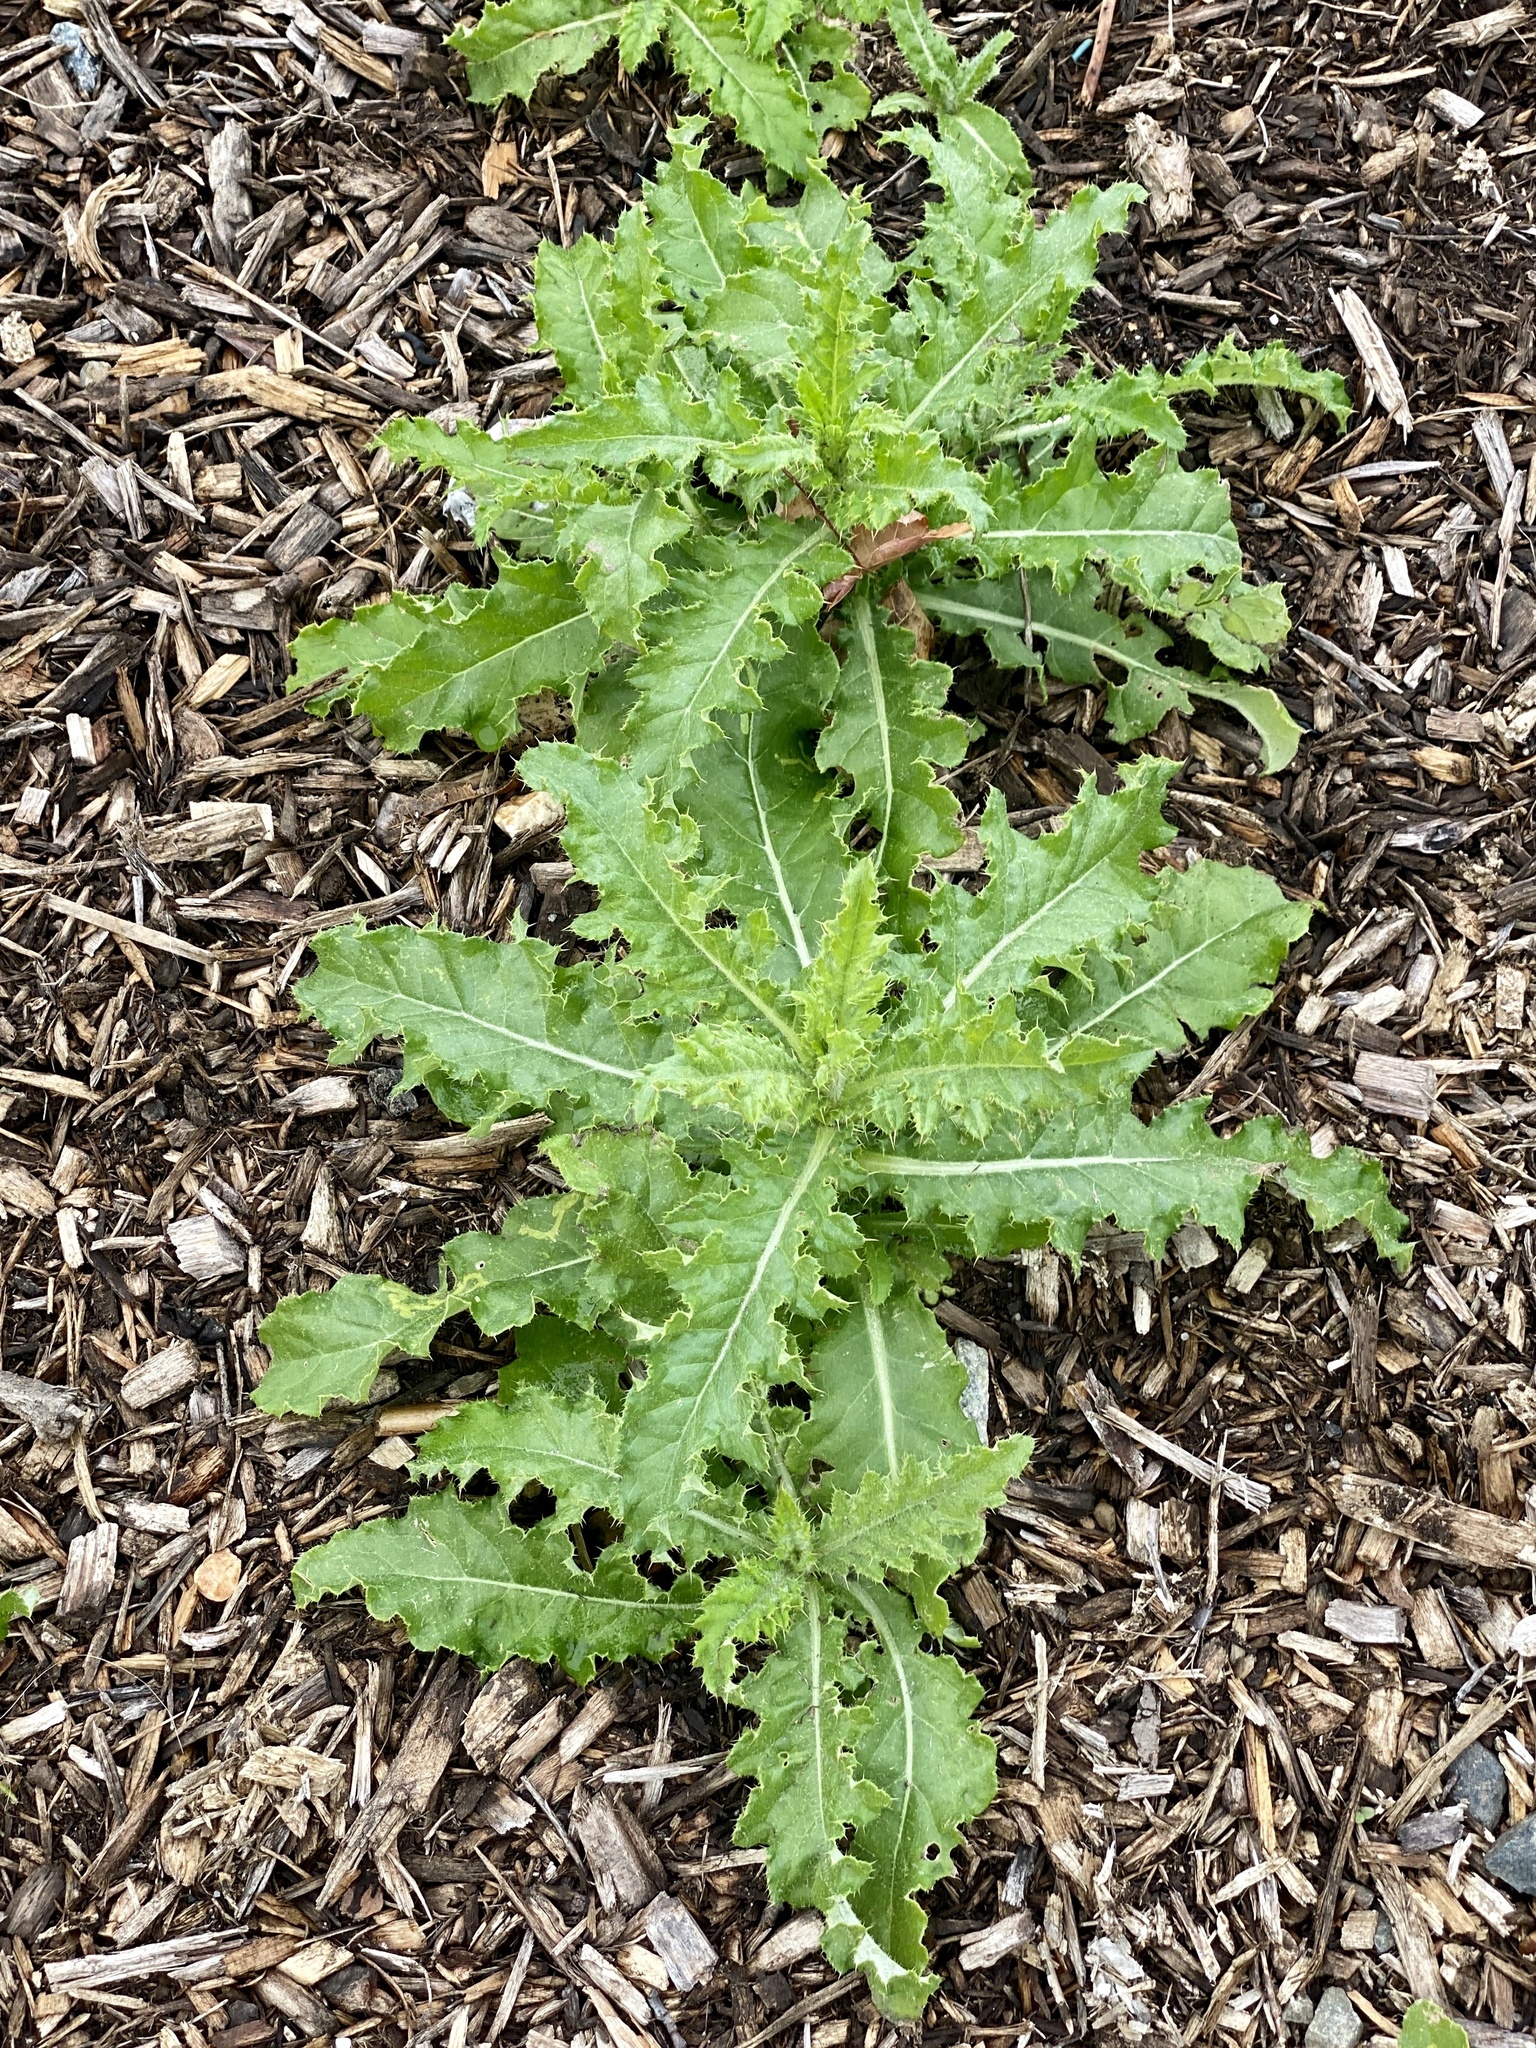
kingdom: Plantae
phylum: Tracheophyta
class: Magnoliopsida
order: Asterales
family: Asteraceae
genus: Cirsium
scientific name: Cirsium arvense
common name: Creeping thistle
